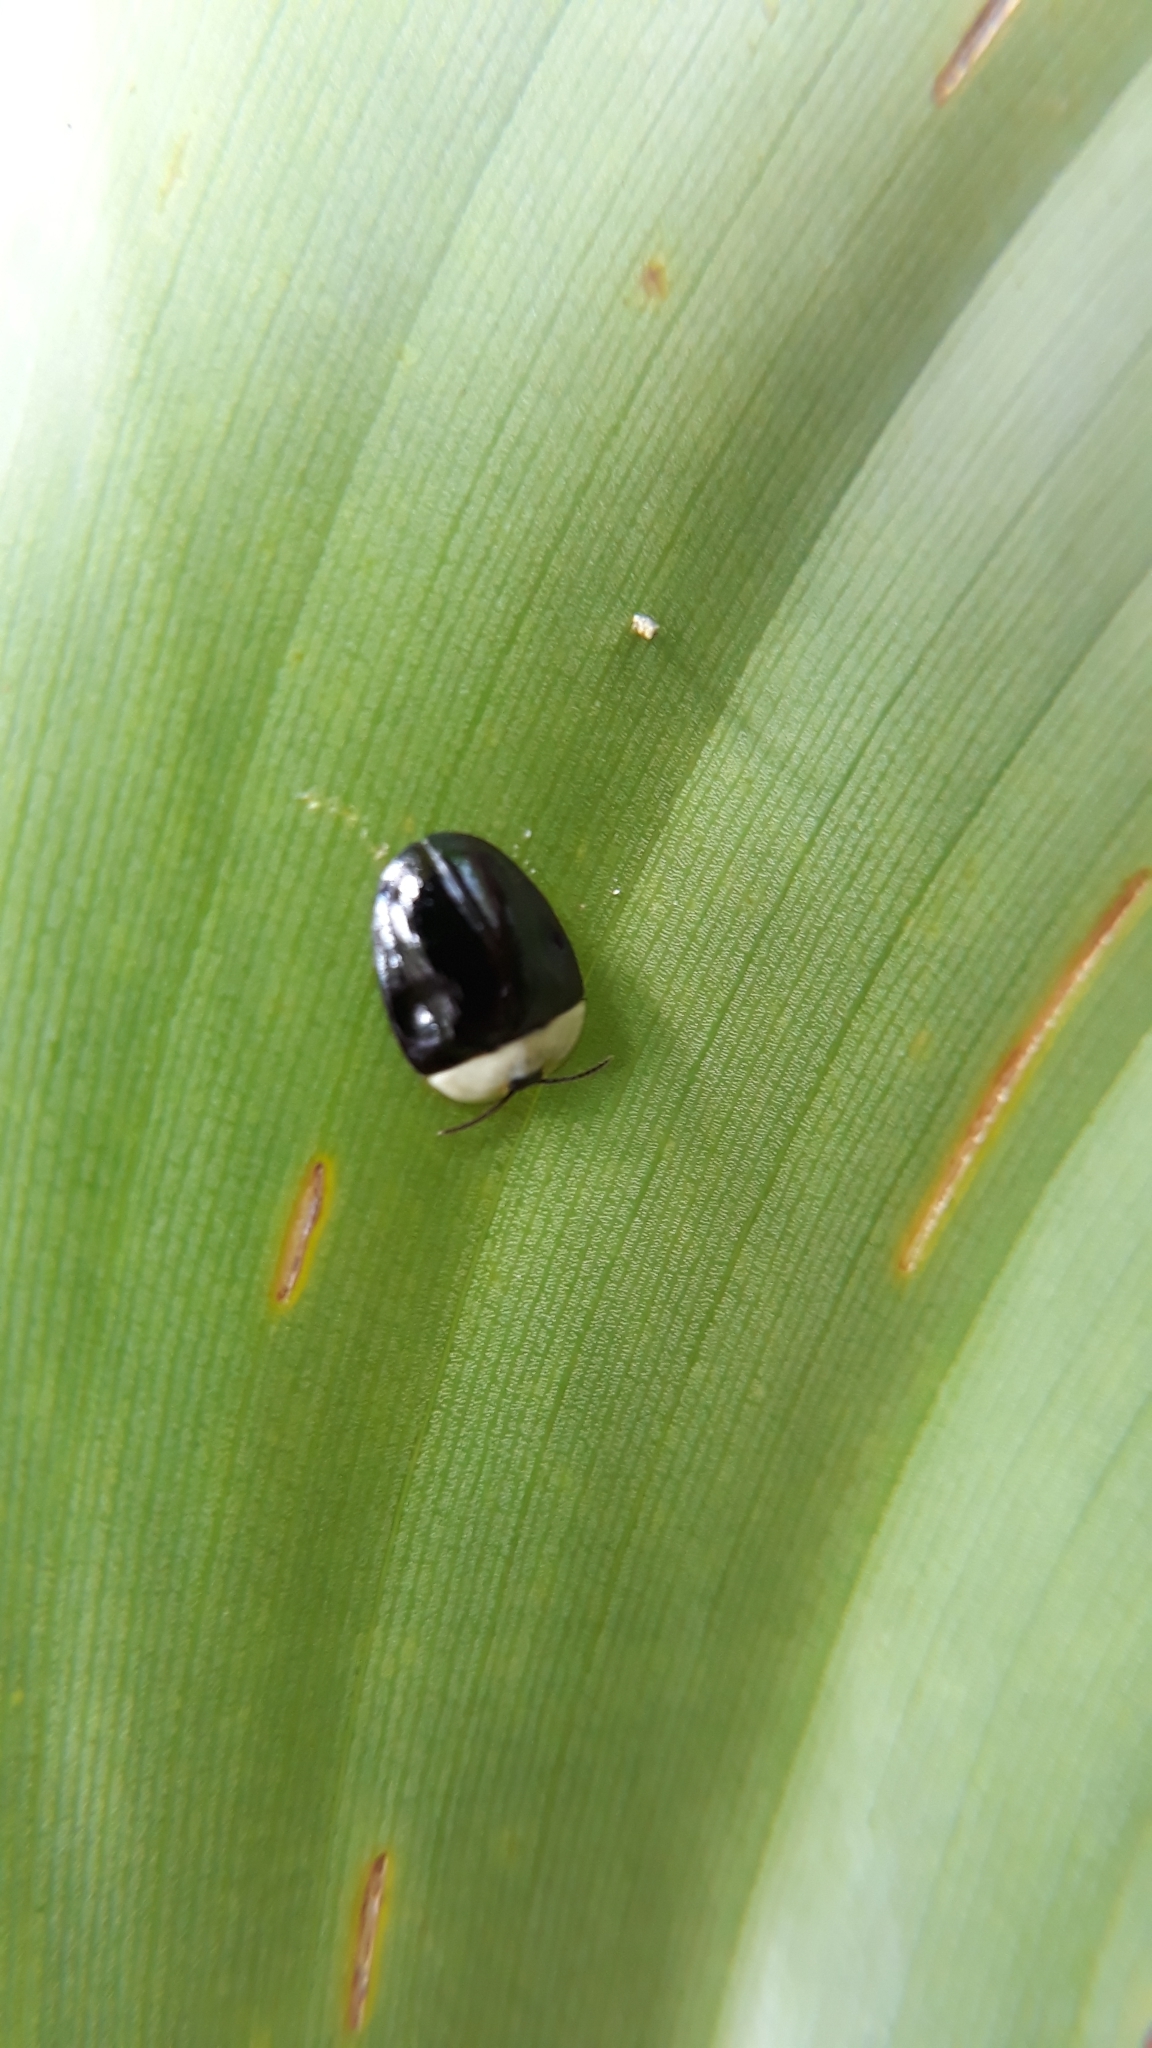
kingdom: Animalia
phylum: Arthropoda
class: Insecta
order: Coleoptera
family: Chrysomelidae
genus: Imatidium
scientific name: Imatidium thoracicum
